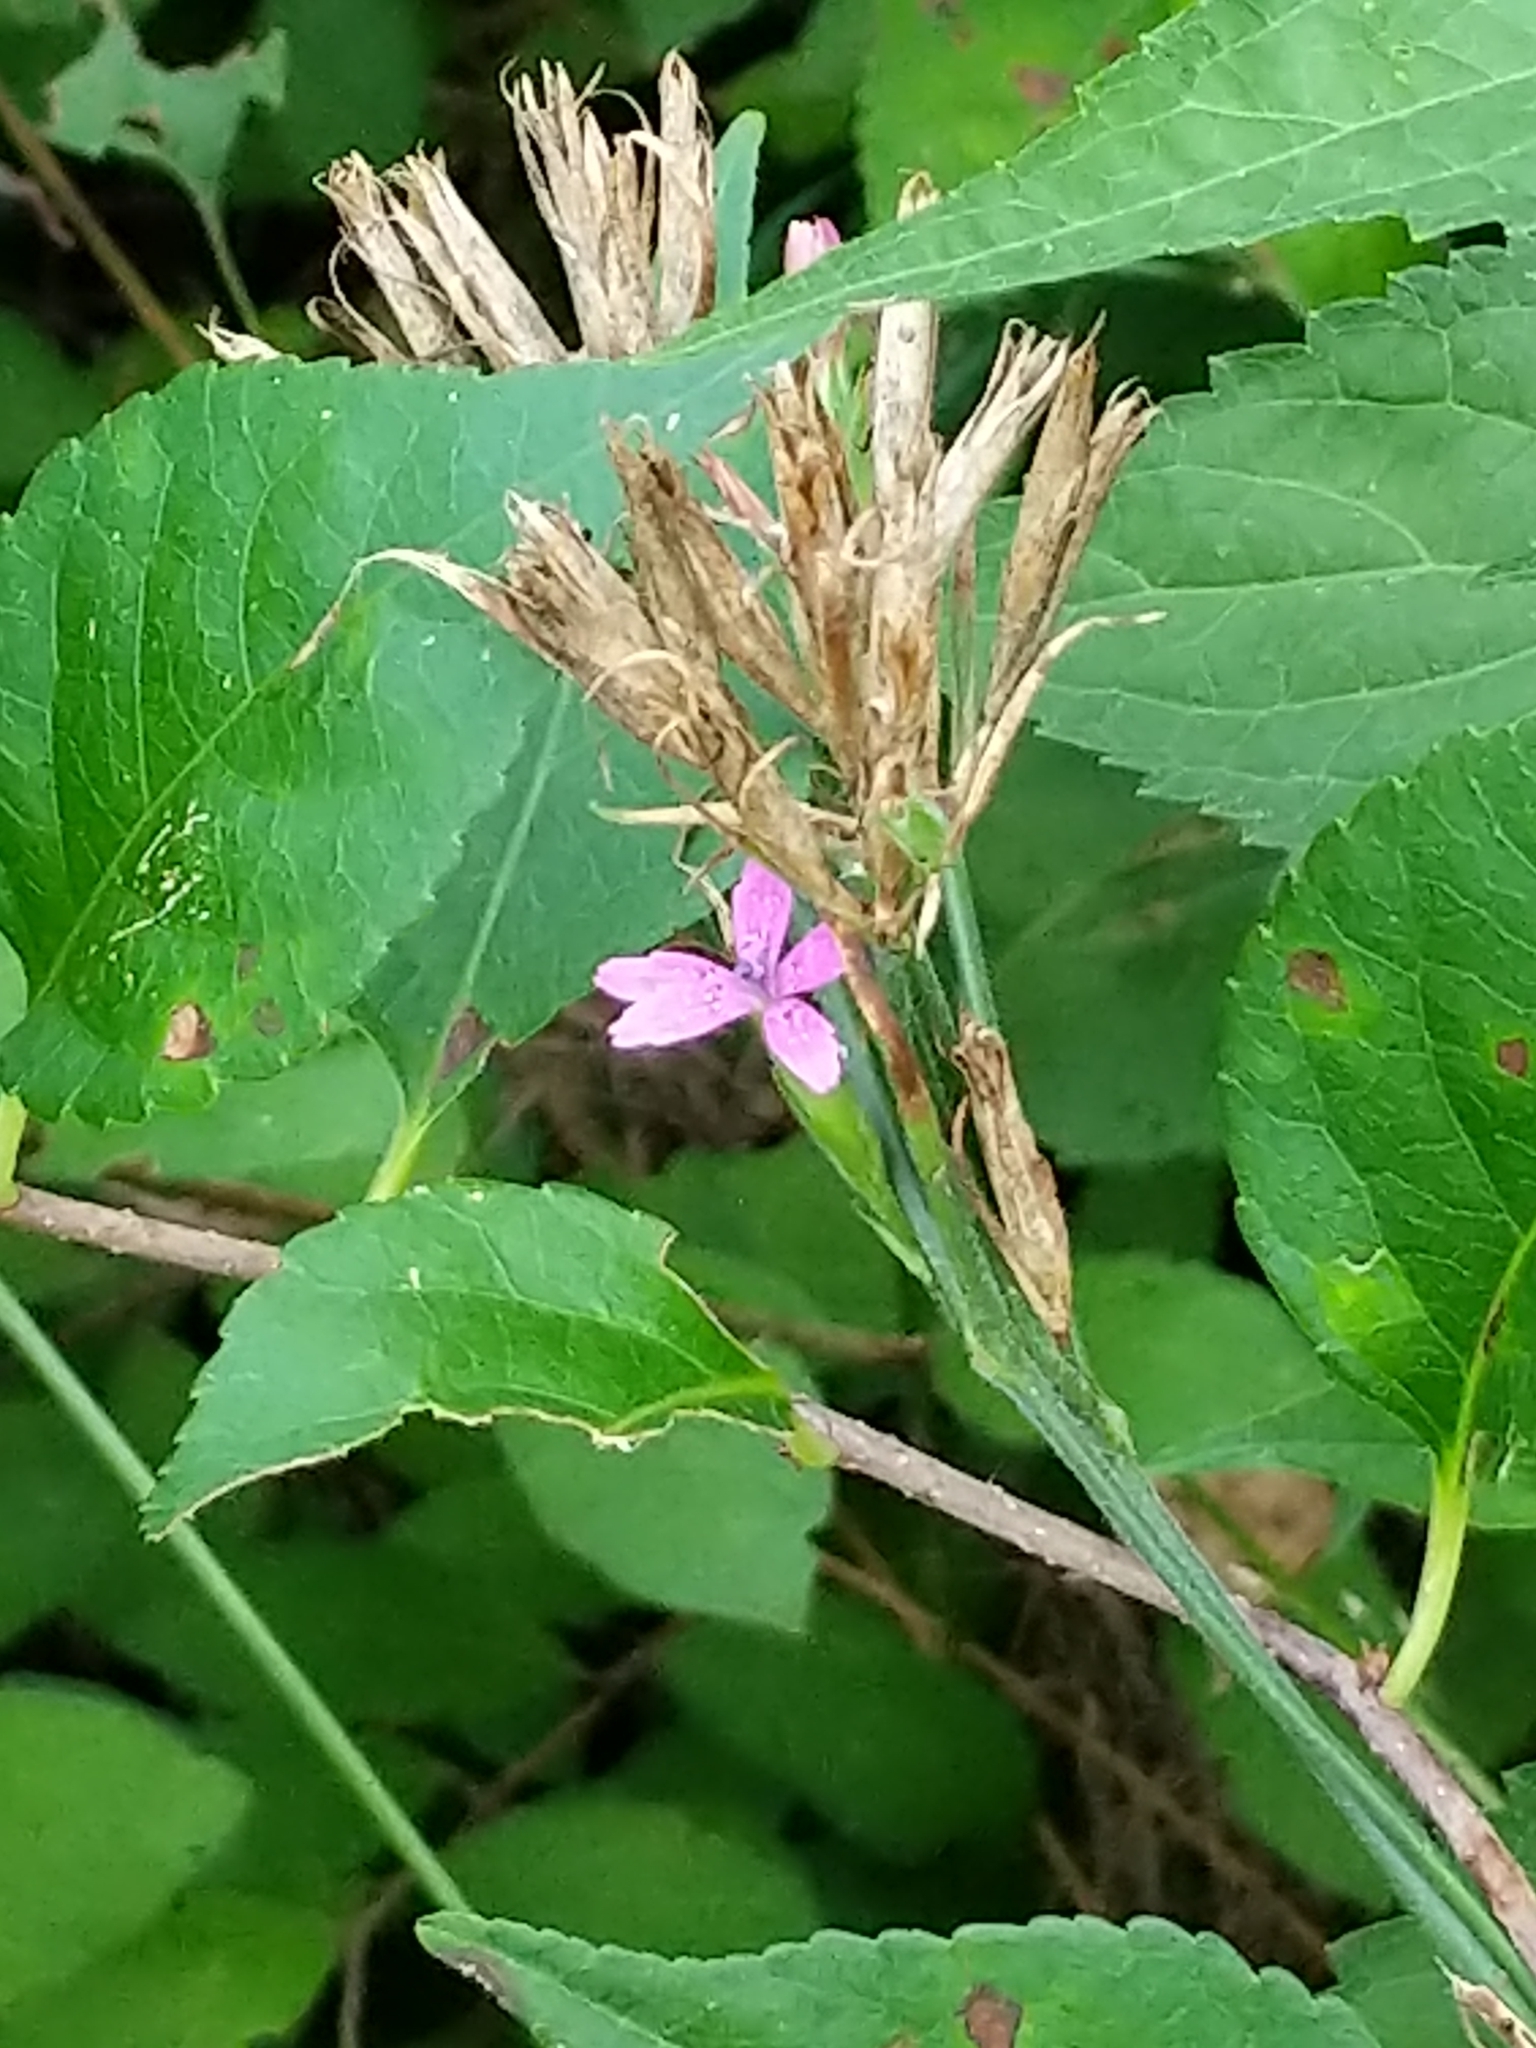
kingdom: Plantae
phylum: Tracheophyta
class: Magnoliopsida
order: Caryophyllales
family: Caryophyllaceae
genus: Dianthus
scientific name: Dianthus armeria
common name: Deptford pink
